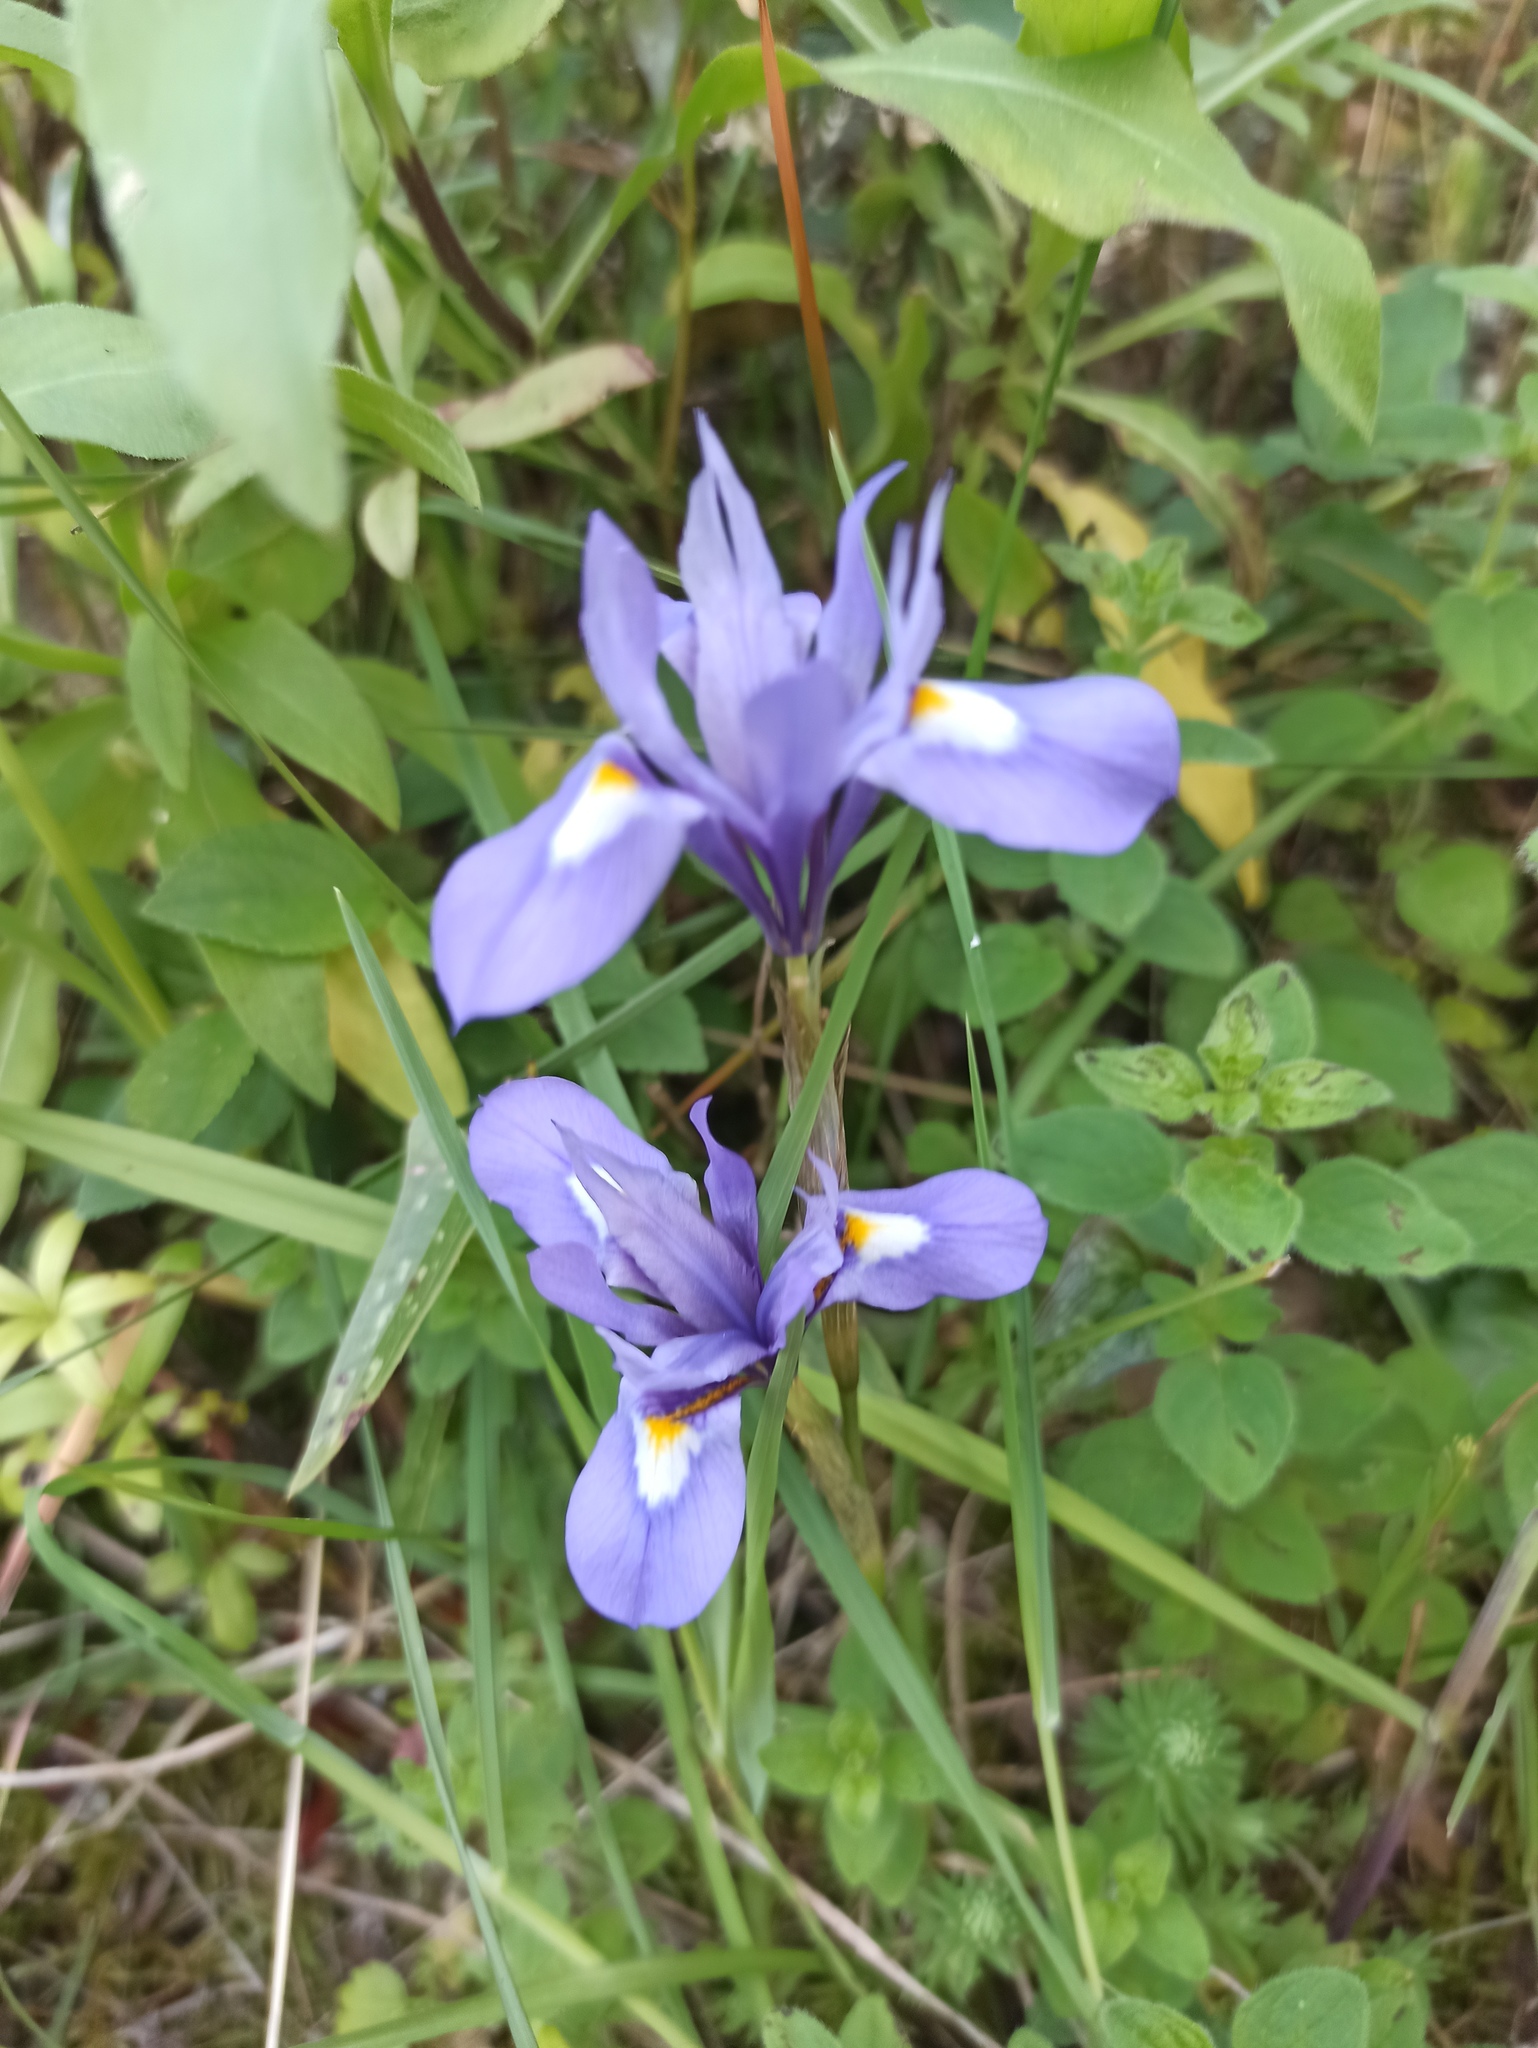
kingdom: Plantae
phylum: Tracheophyta
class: Liliopsida
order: Asparagales
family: Iridaceae
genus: Moraea
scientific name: Moraea sisyrinchium
